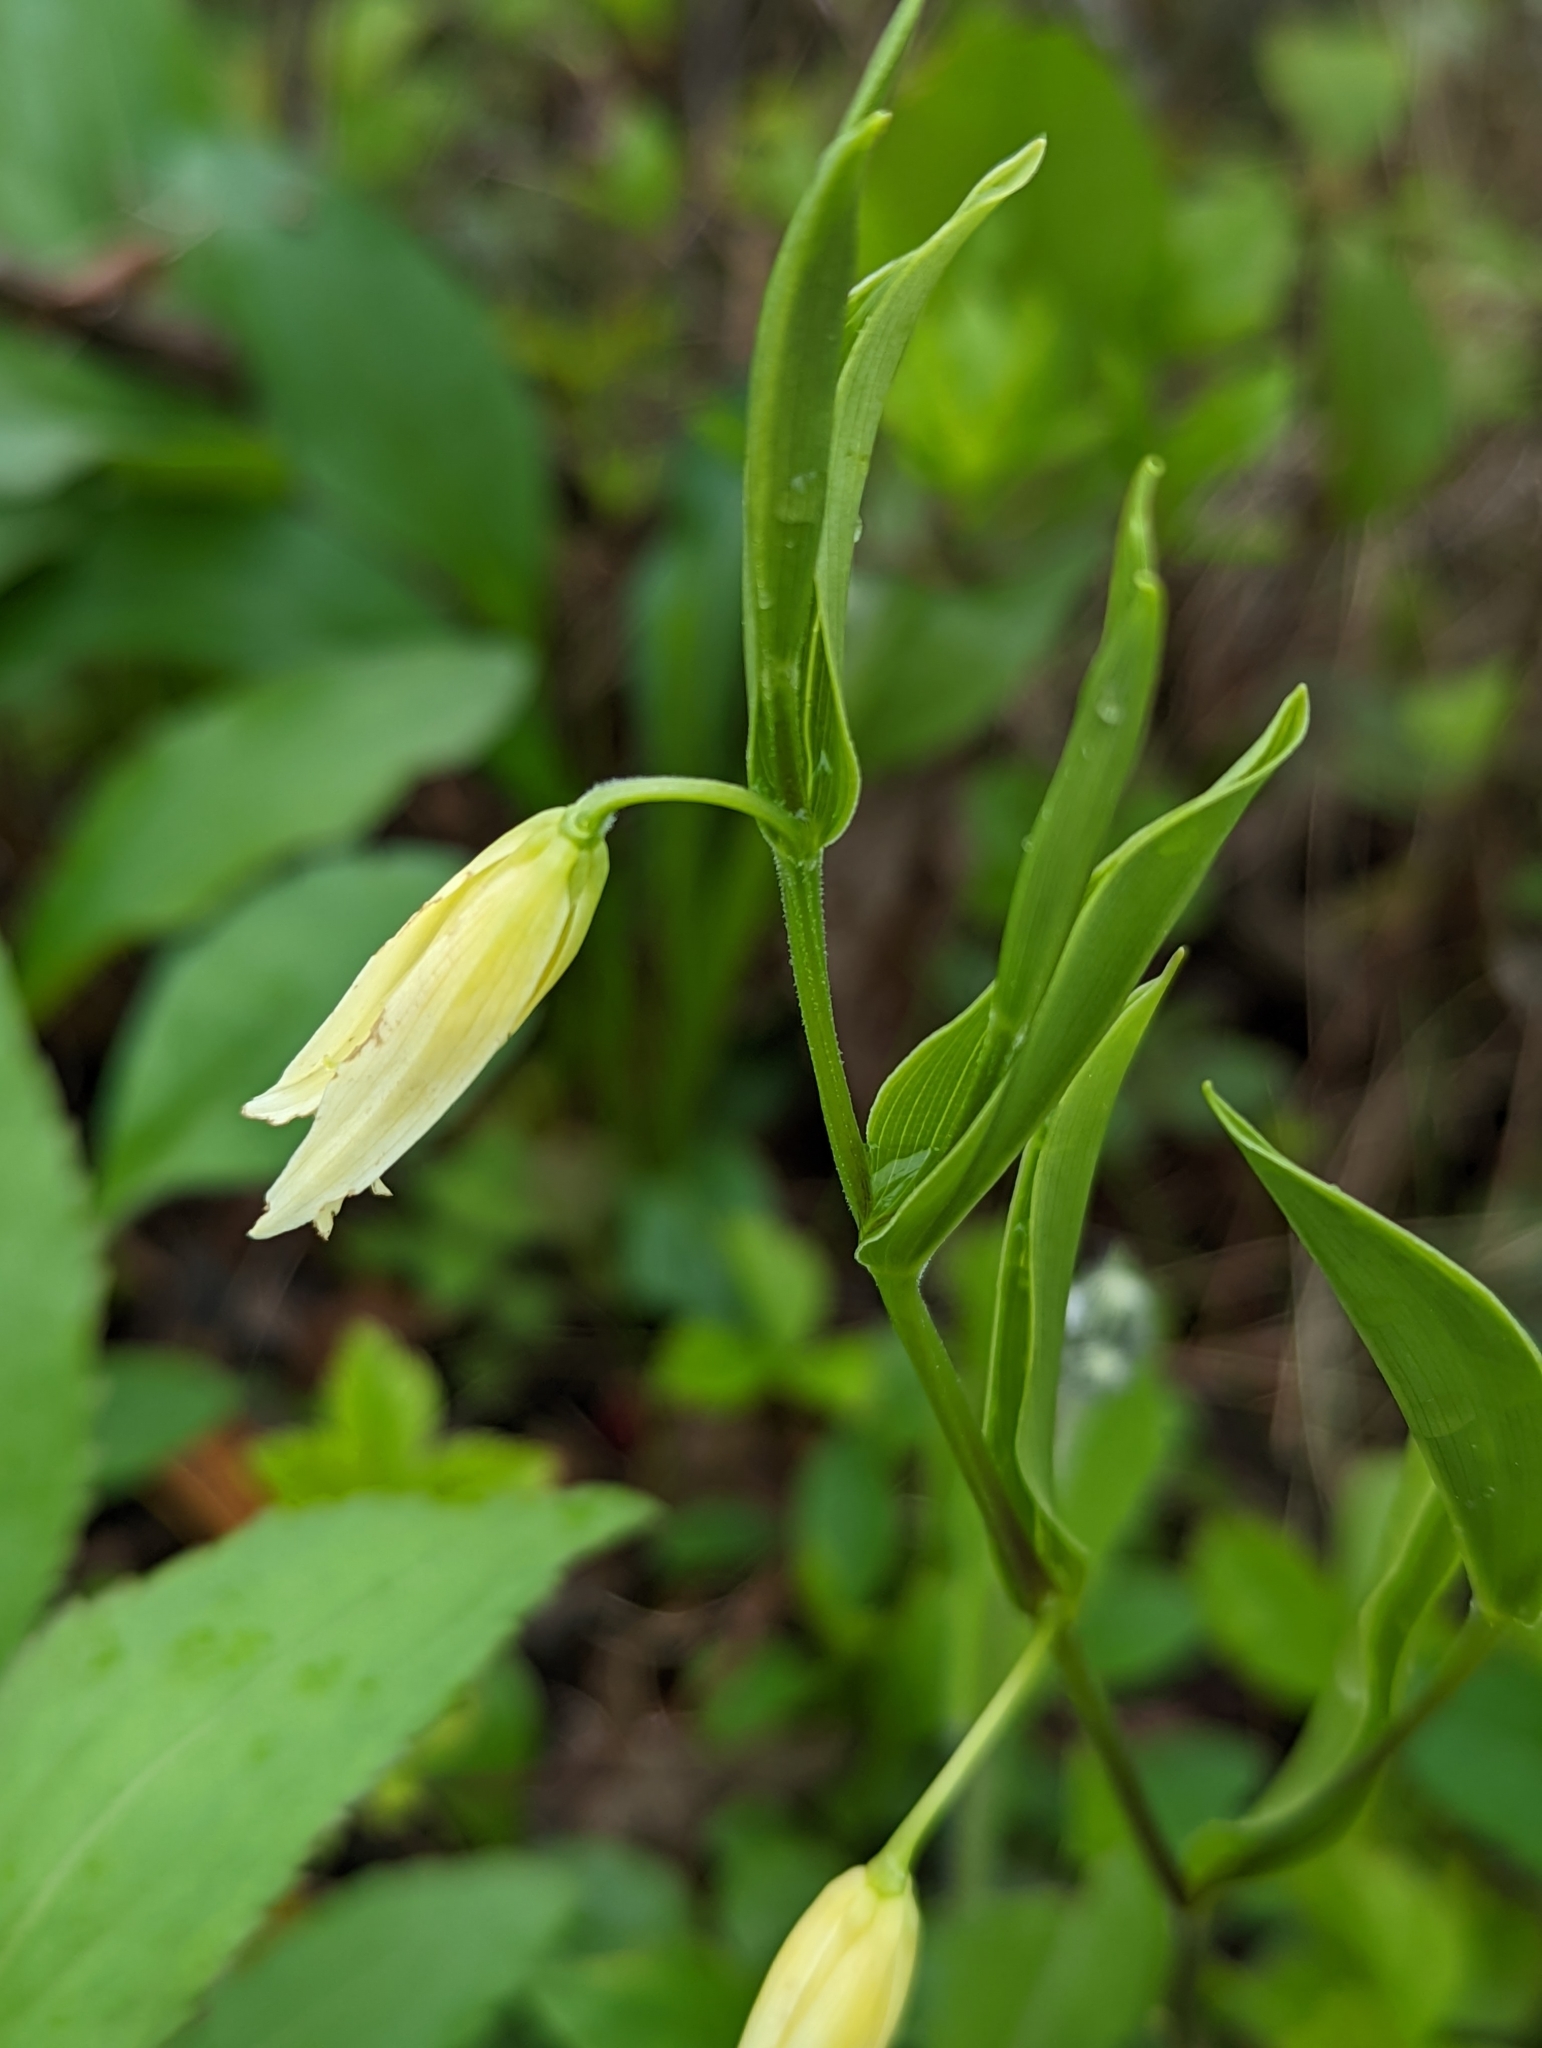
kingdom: Plantae
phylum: Tracheophyta
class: Liliopsida
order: Liliales
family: Colchicaceae
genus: Uvularia
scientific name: Uvularia puberula
